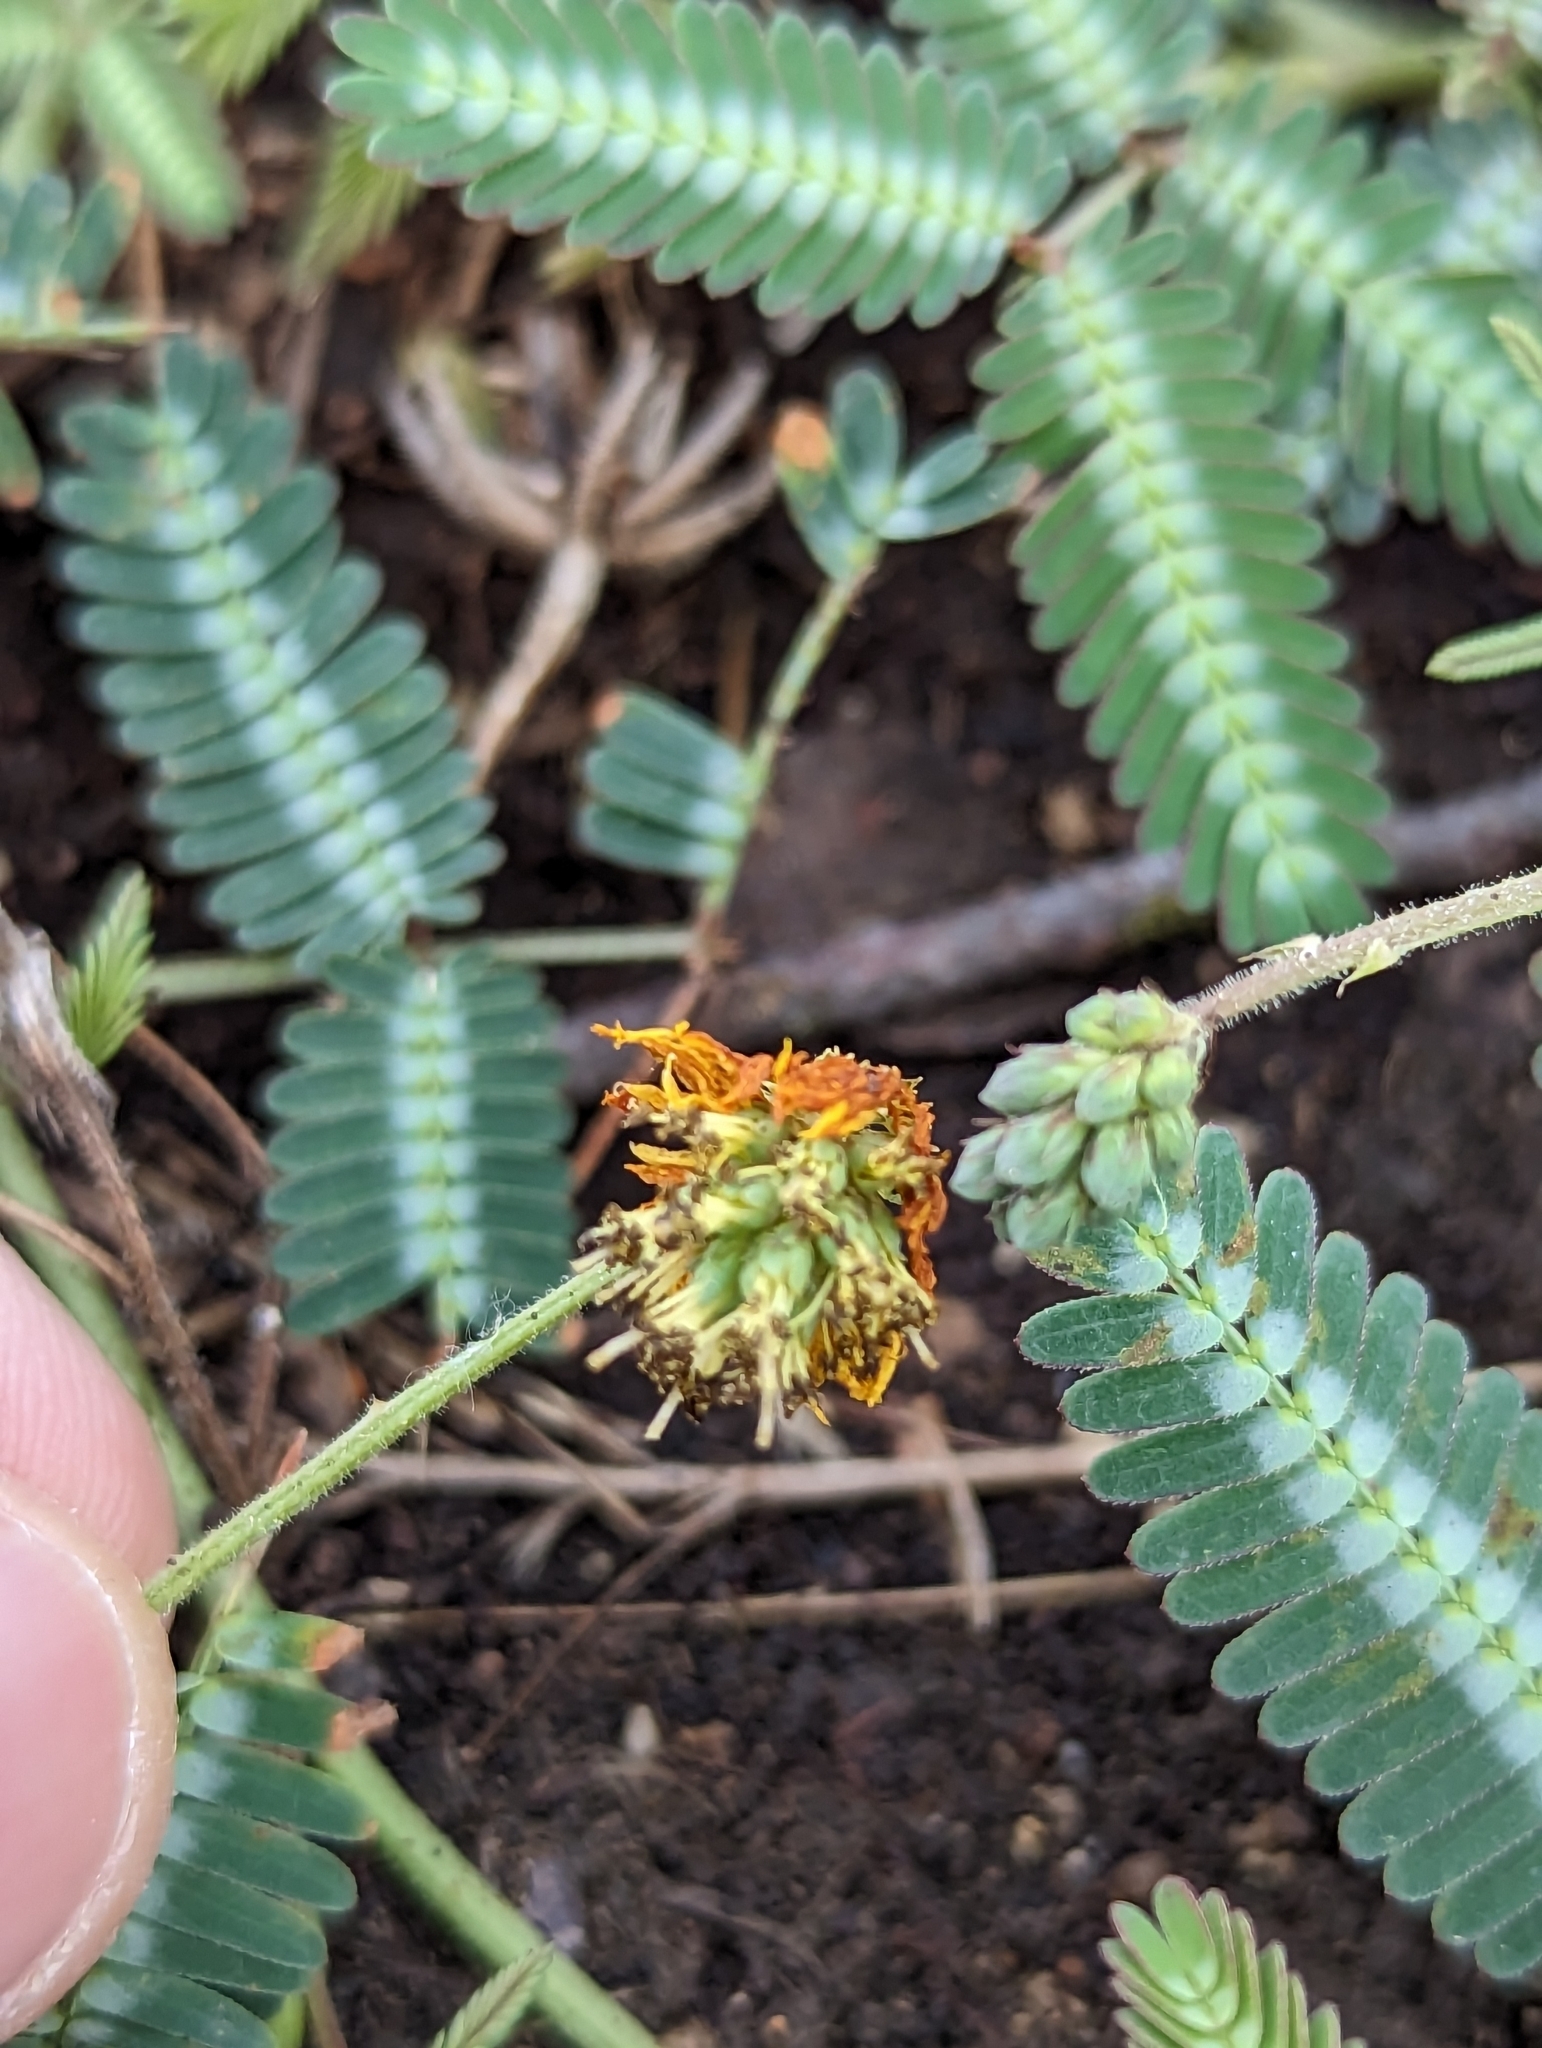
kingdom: Plantae
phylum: Tracheophyta
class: Magnoliopsida
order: Fabales
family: Fabaceae
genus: Neptunia
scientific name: Neptunia pubescens
